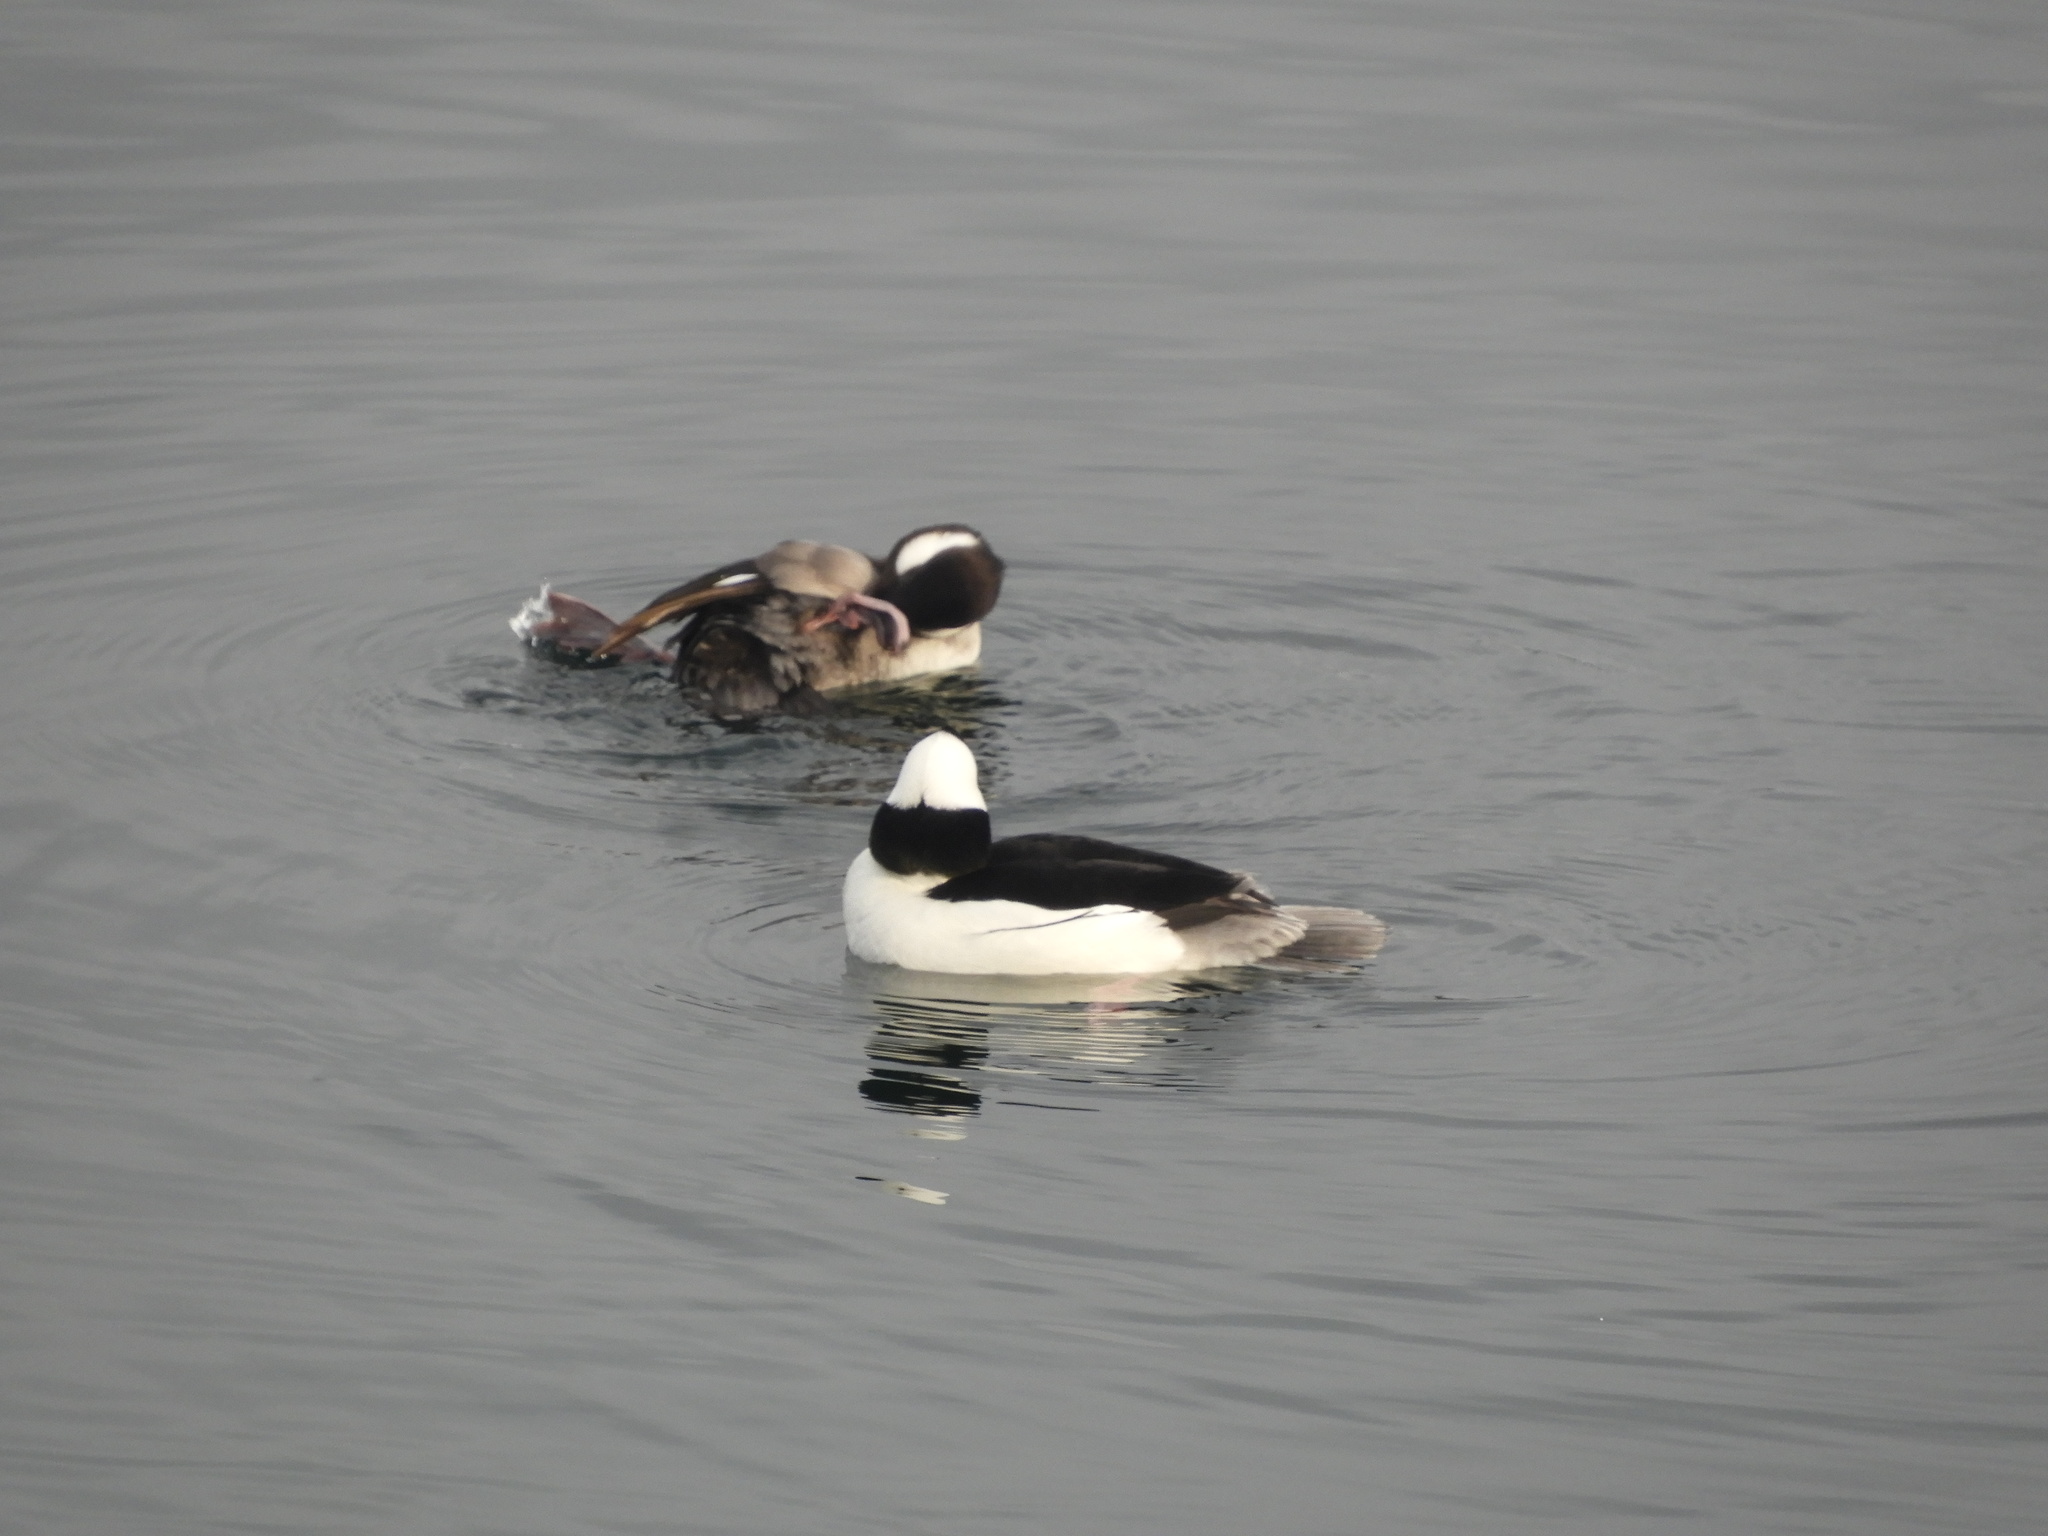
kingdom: Animalia
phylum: Chordata
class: Aves
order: Anseriformes
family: Anatidae
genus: Bucephala
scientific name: Bucephala albeola
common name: Bufflehead
